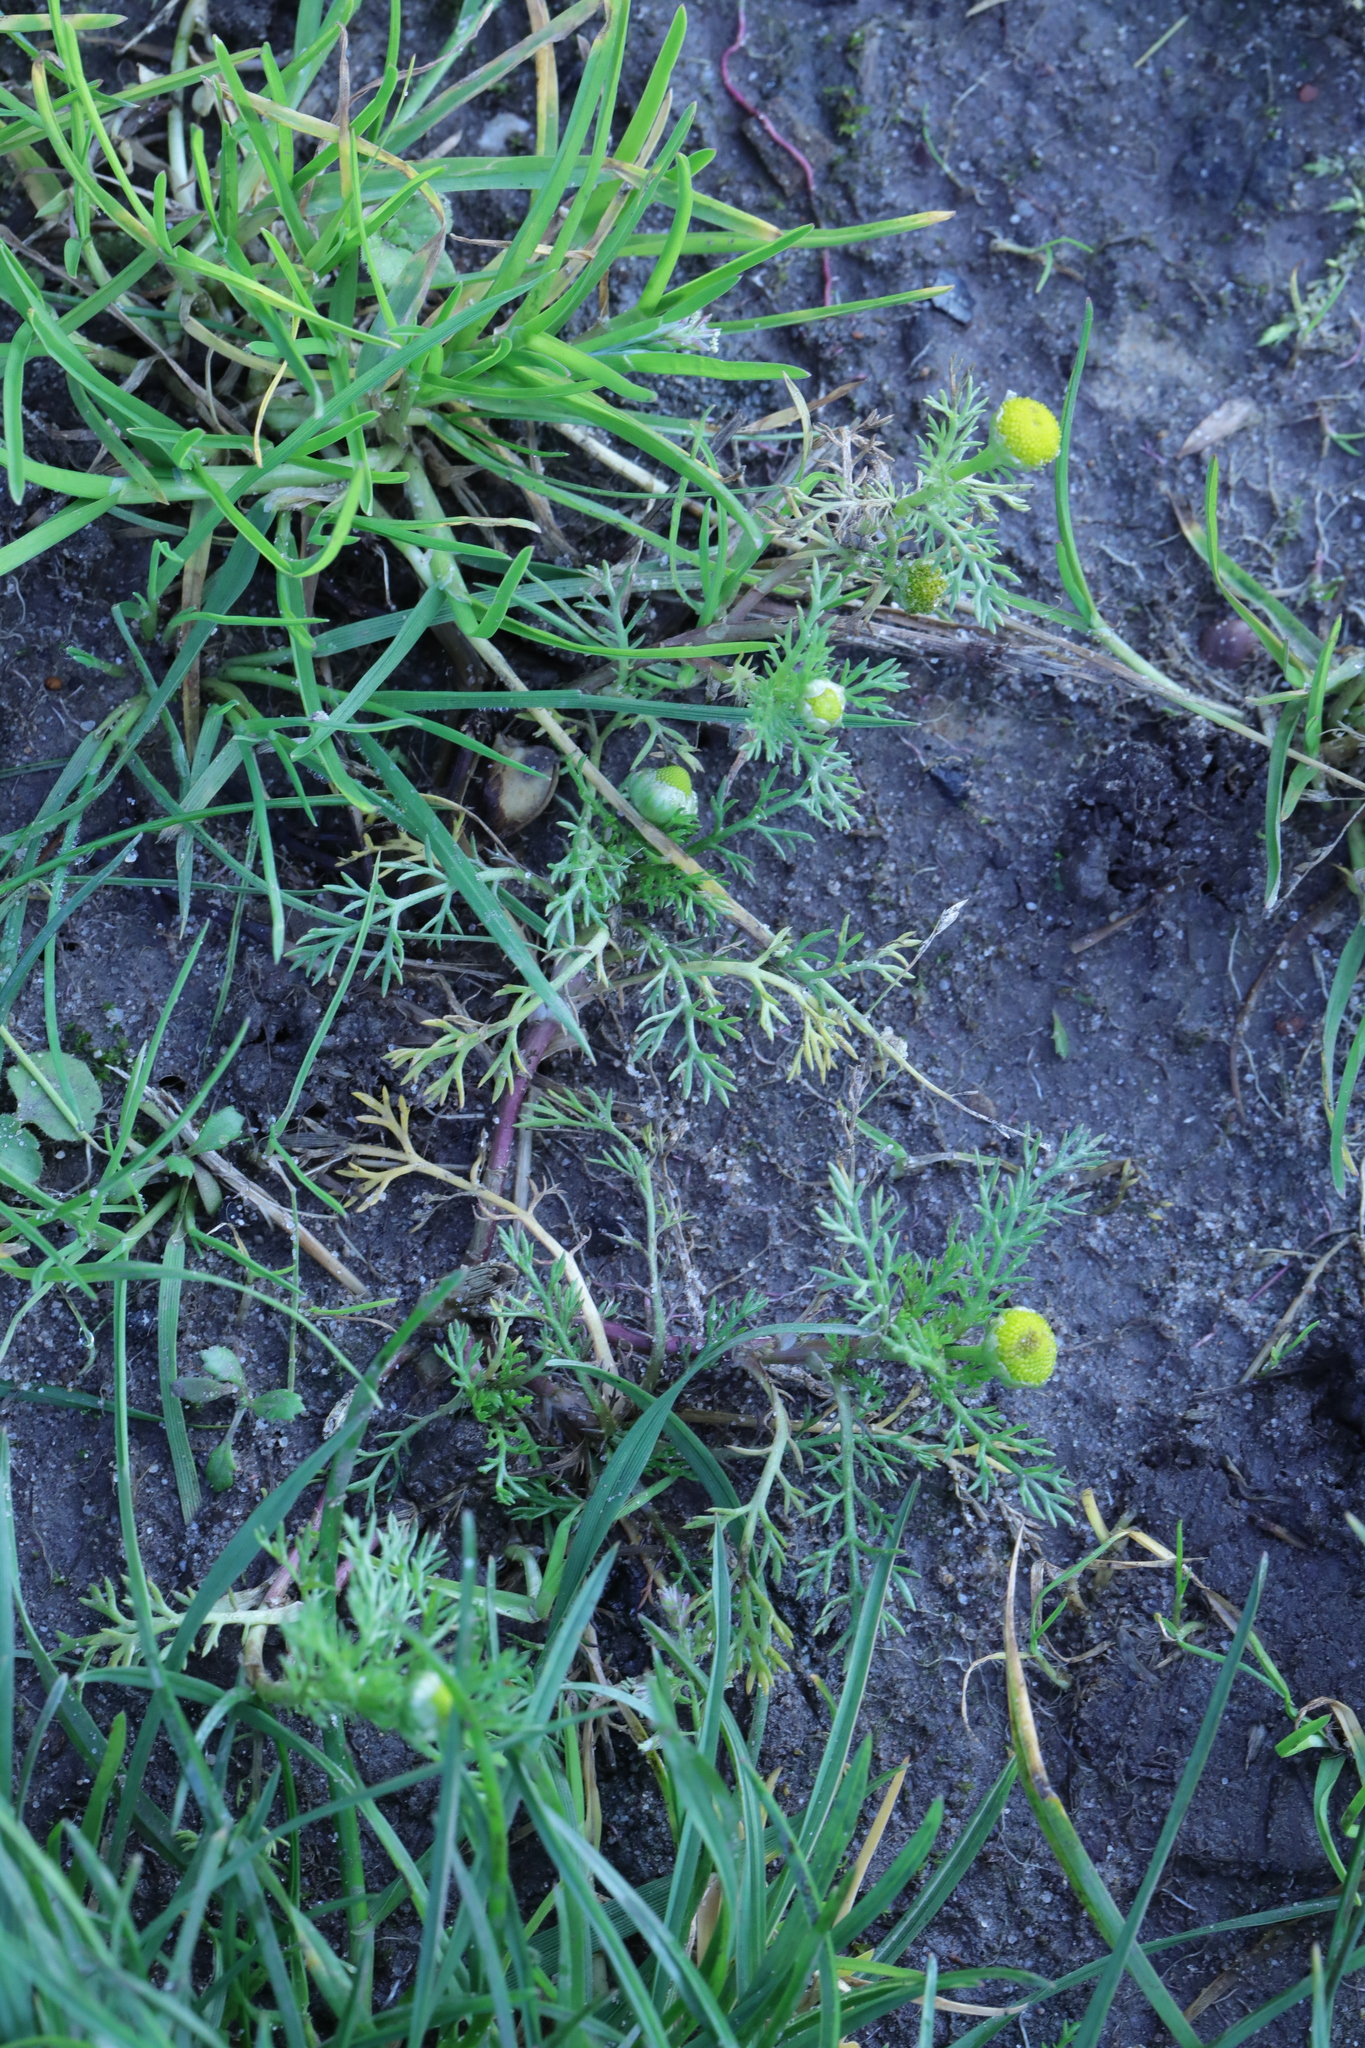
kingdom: Plantae
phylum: Tracheophyta
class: Magnoliopsida
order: Asterales
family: Asteraceae
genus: Matricaria
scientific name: Matricaria discoidea
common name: Disc mayweed
